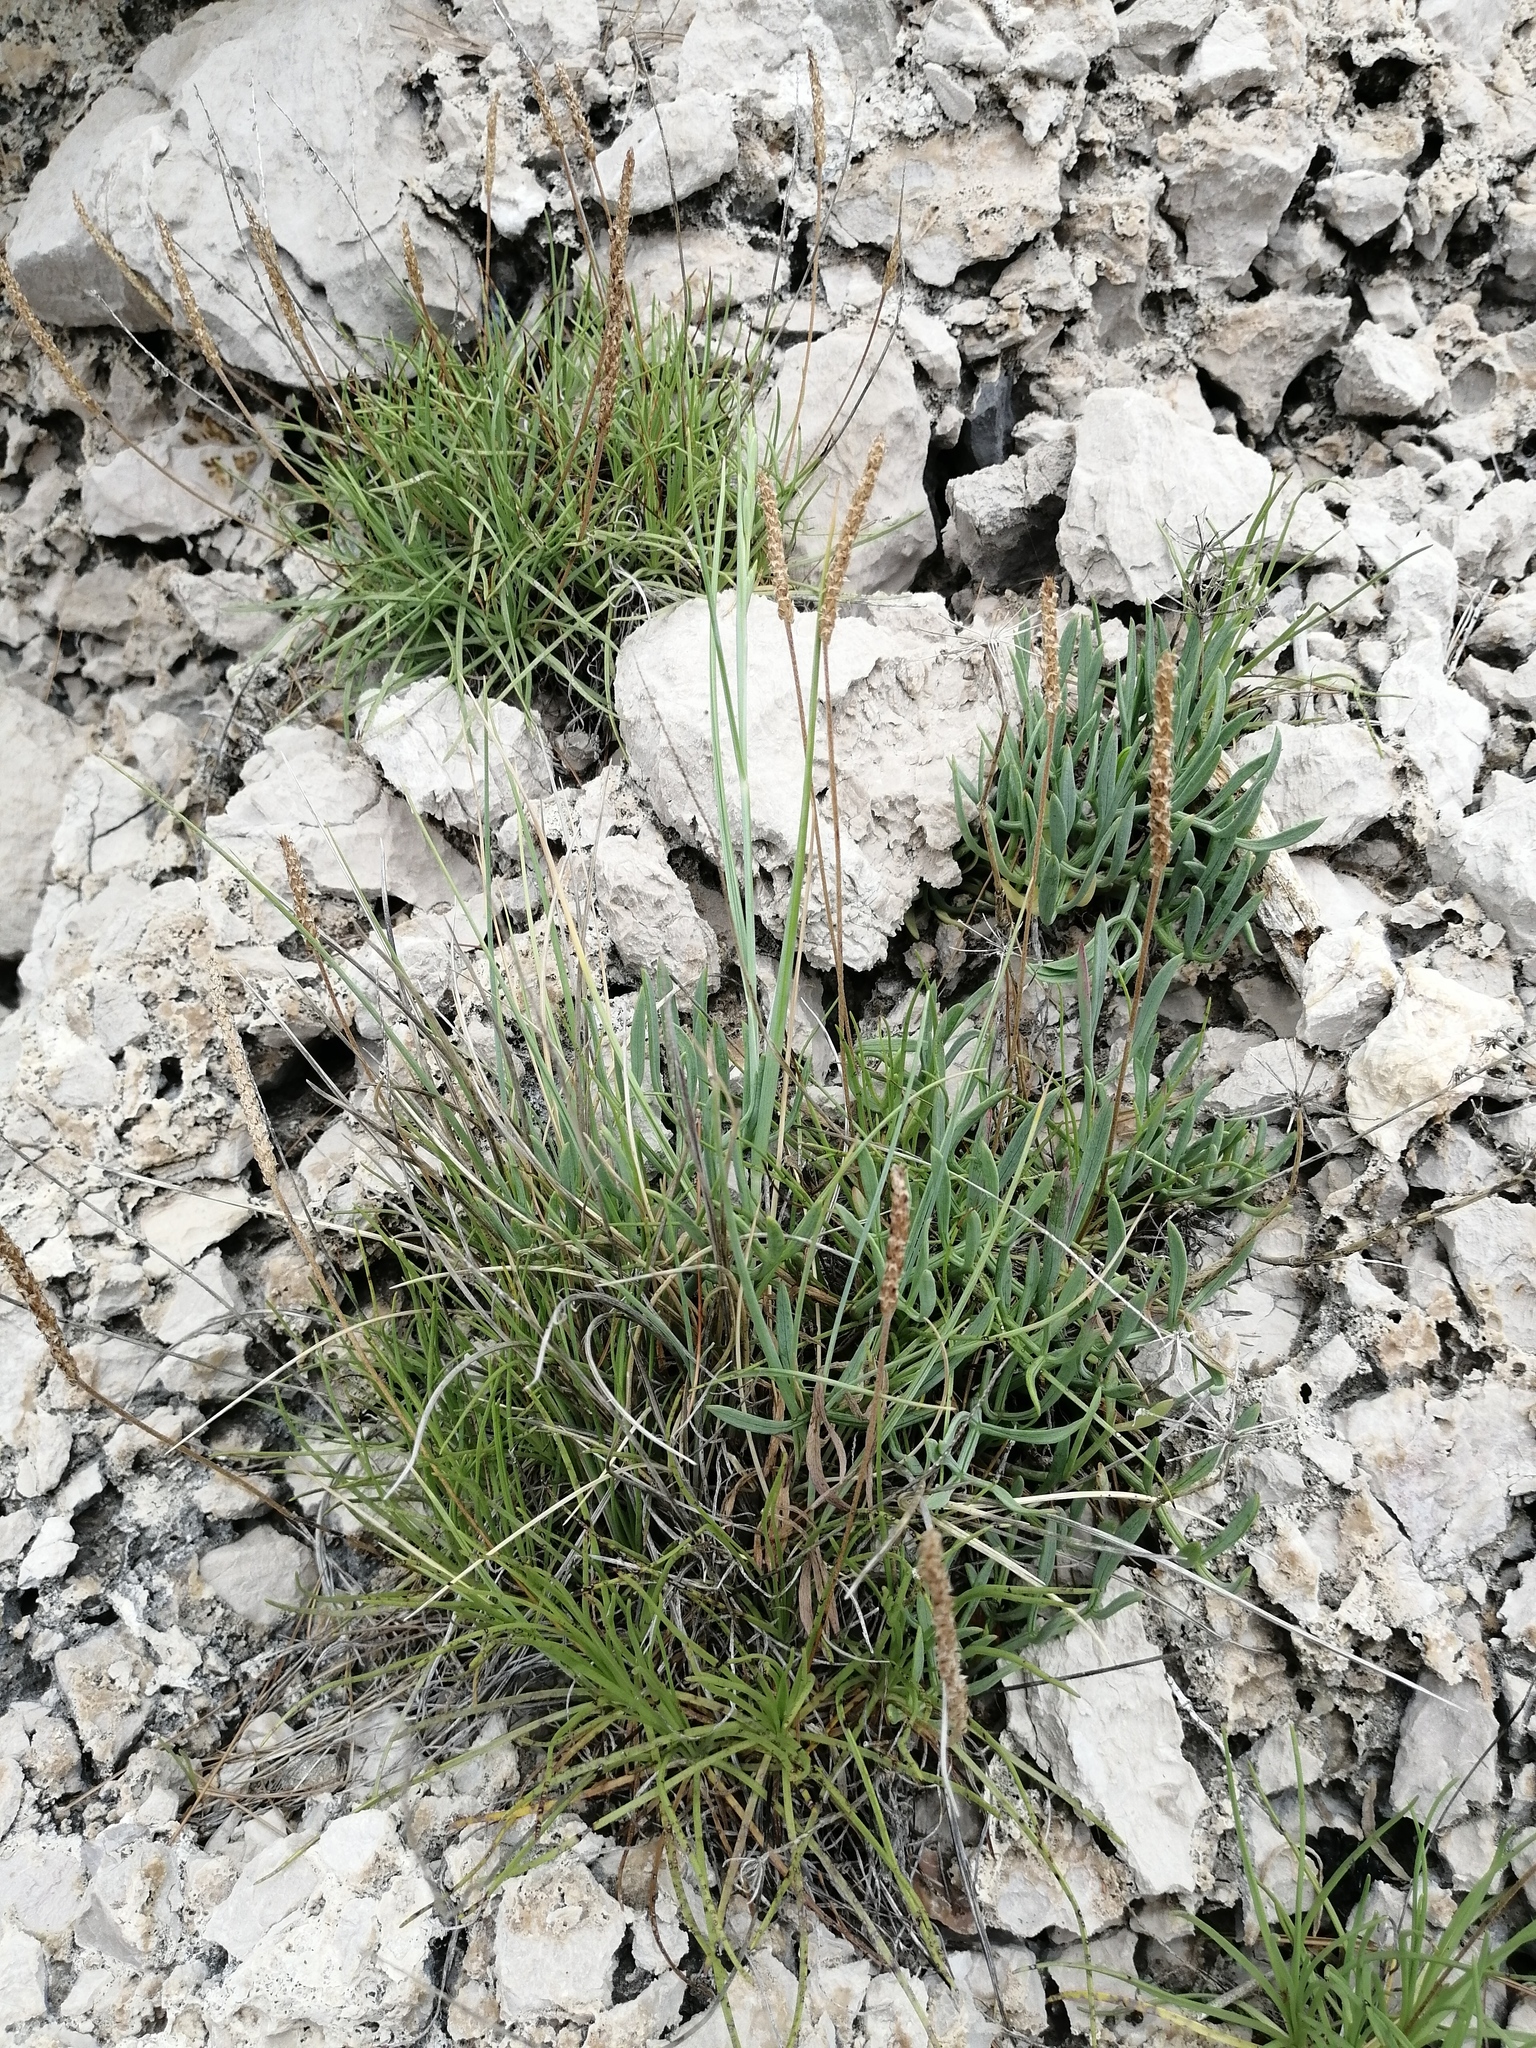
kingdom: Plantae
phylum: Tracheophyta
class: Magnoliopsida
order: Lamiales
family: Plantaginaceae
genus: Plantago
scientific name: Plantago maritima
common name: Sea plantain
